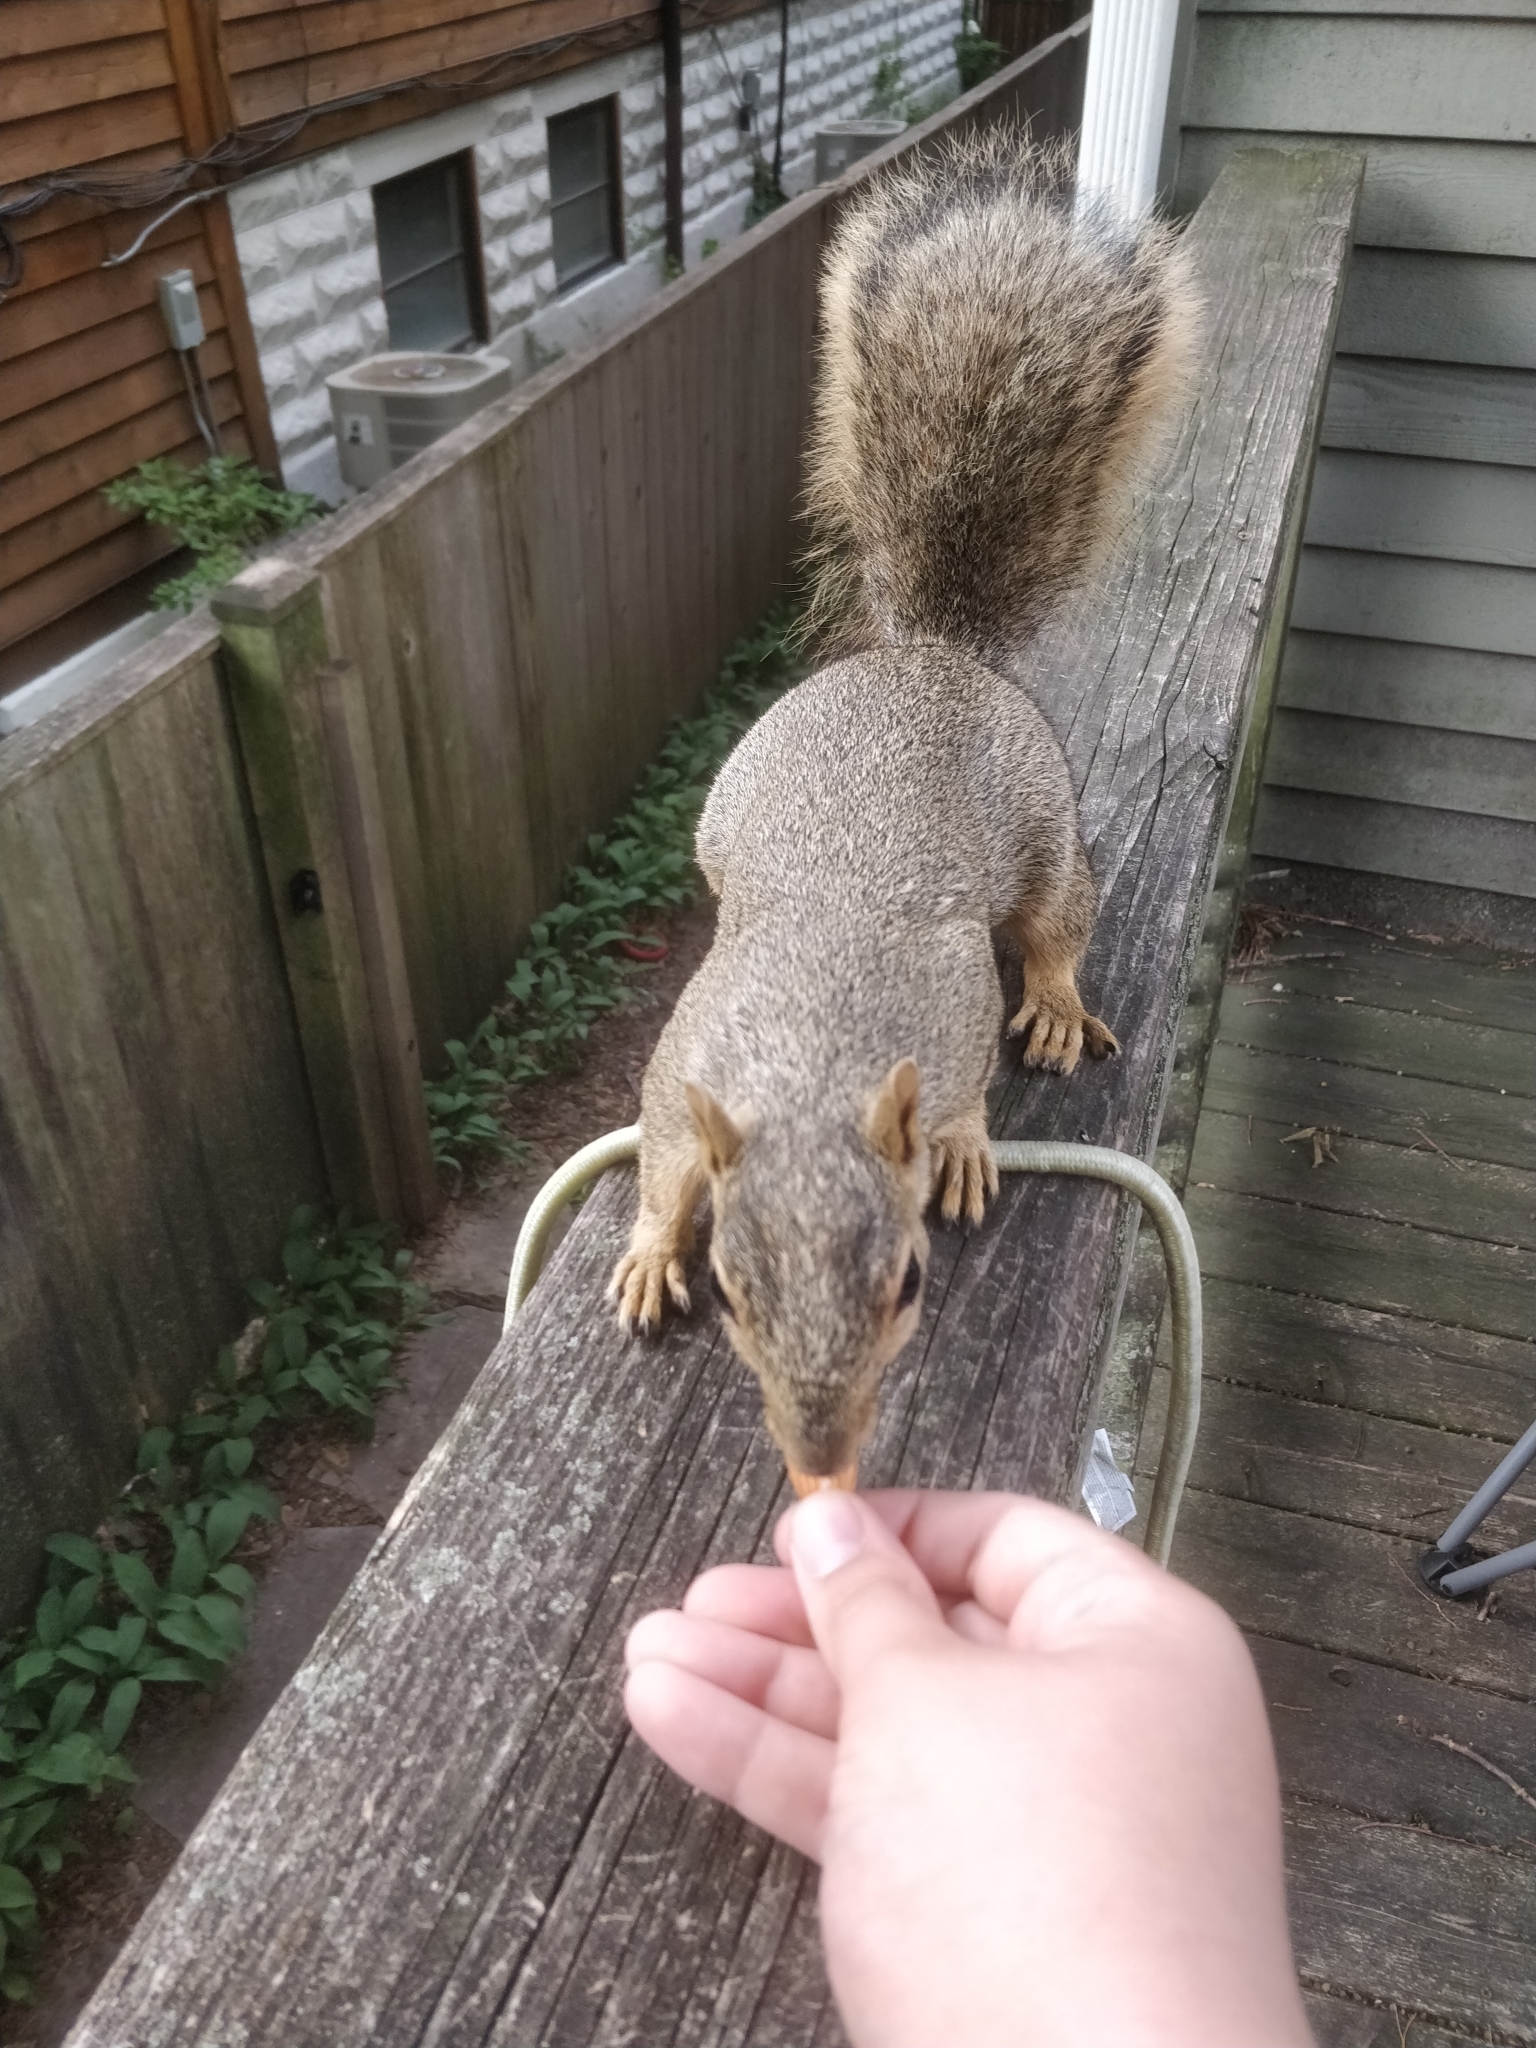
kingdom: Animalia
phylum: Chordata
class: Mammalia
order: Rodentia
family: Sciuridae
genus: Sciurus
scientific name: Sciurus niger
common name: Fox squirrel
